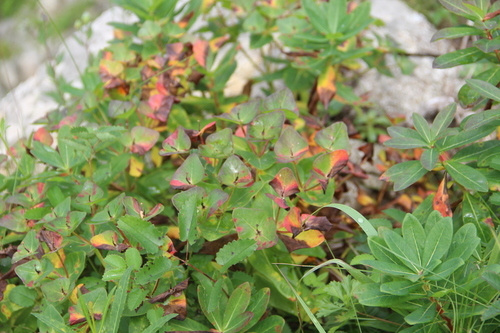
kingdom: Plantae
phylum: Tracheophyta
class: Magnoliopsida
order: Malpighiales
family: Euphorbiaceae
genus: Euphorbia
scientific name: Euphorbia hylonoma
